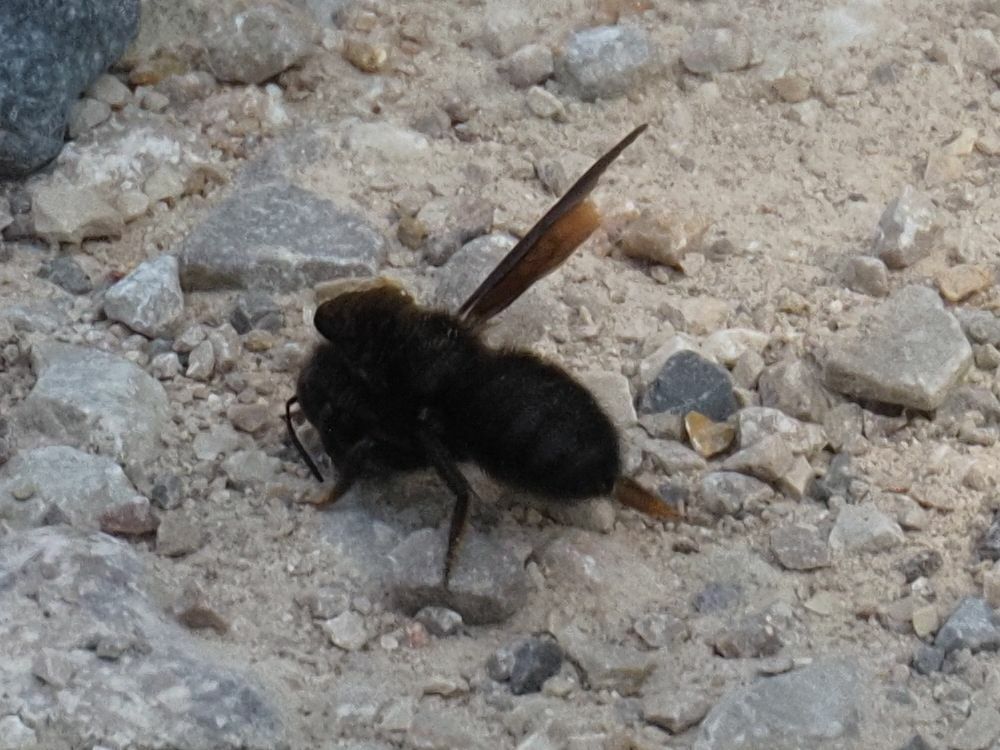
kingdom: Animalia
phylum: Arthropoda
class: Insecta
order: Hymenoptera
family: Megachilidae
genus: Megachile
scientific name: Megachile parietina
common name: Black mud bee
